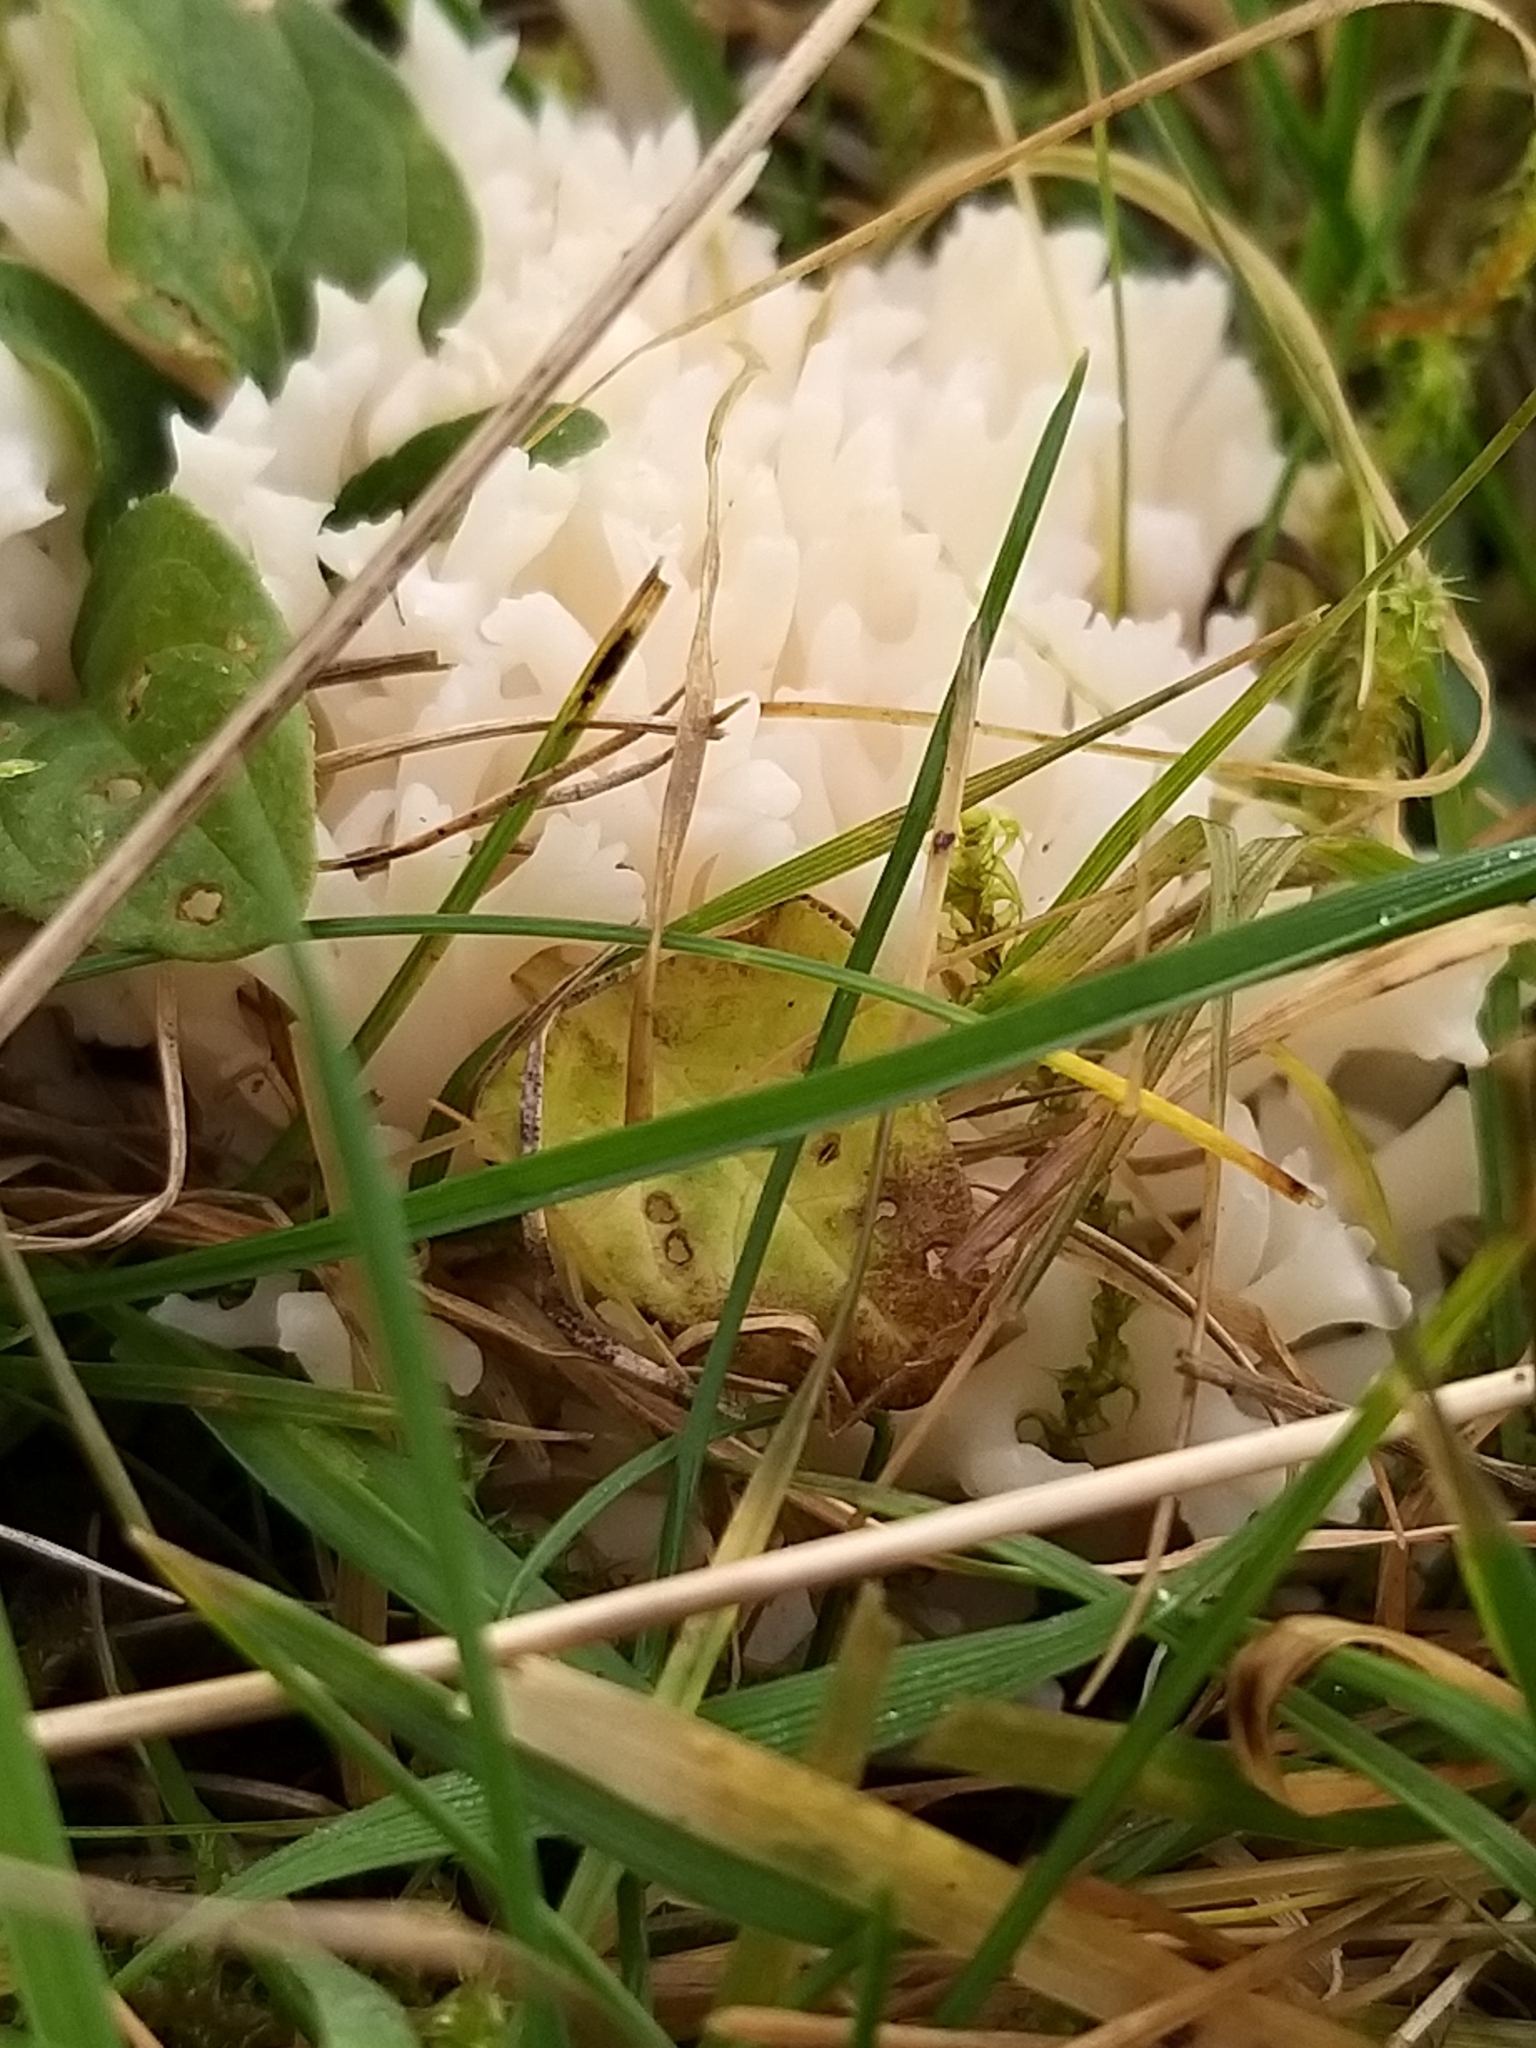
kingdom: Fungi
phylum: Basidiomycota
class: Agaricomycetes
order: Agaricales
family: Clavariaceae
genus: Ramariopsis
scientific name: Ramariopsis robusta
